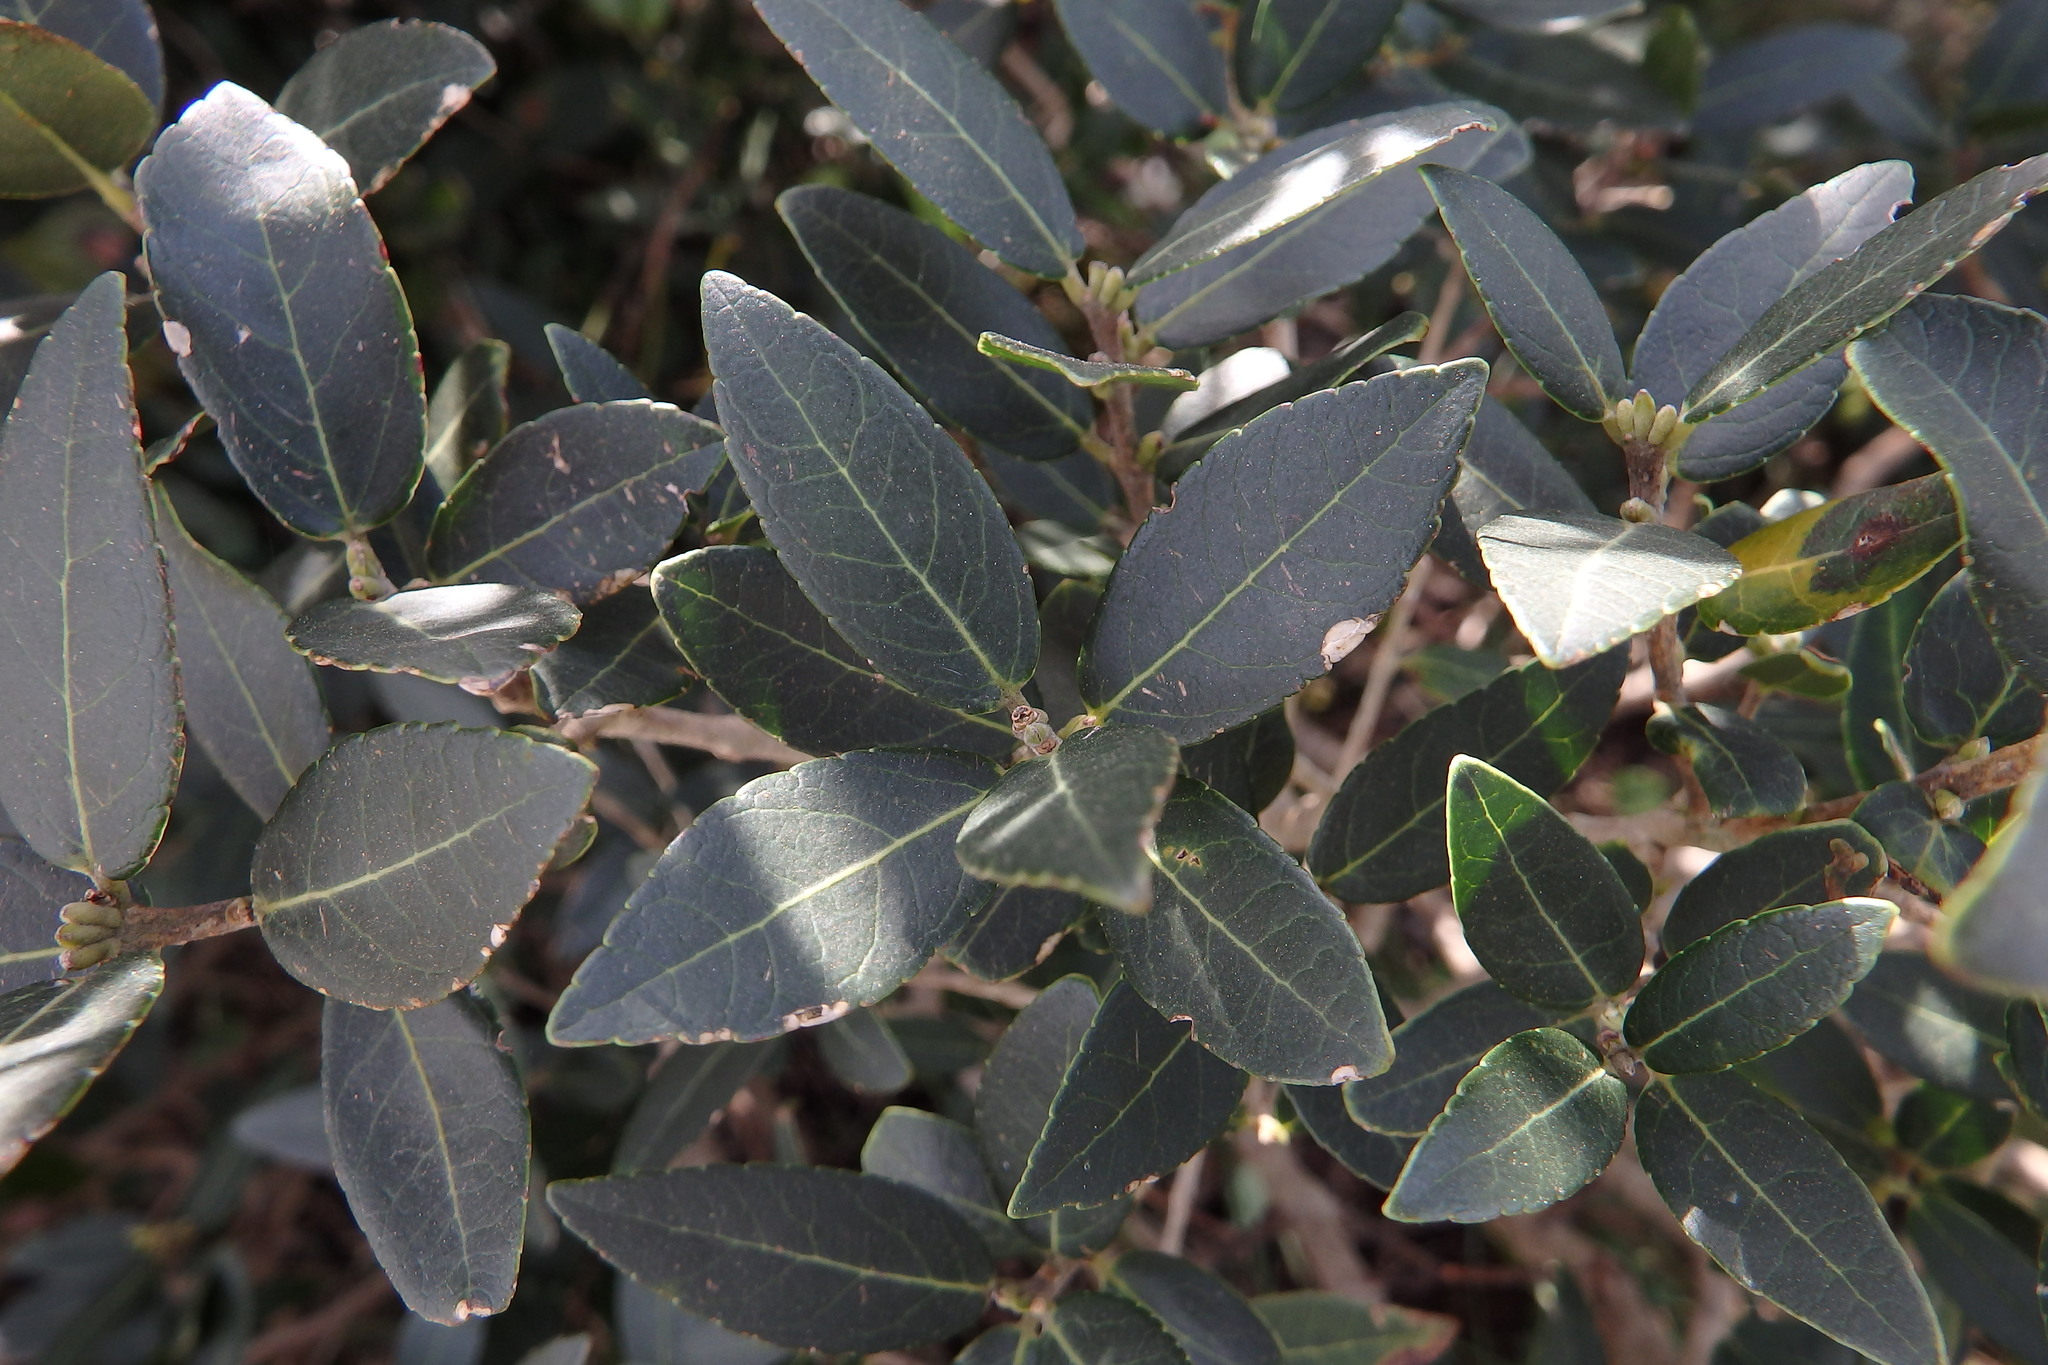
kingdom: Plantae
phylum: Tracheophyta
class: Magnoliopsida
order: Lamiales
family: Oleaceae
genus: Phillyrea
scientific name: Phillyrea latifolia
